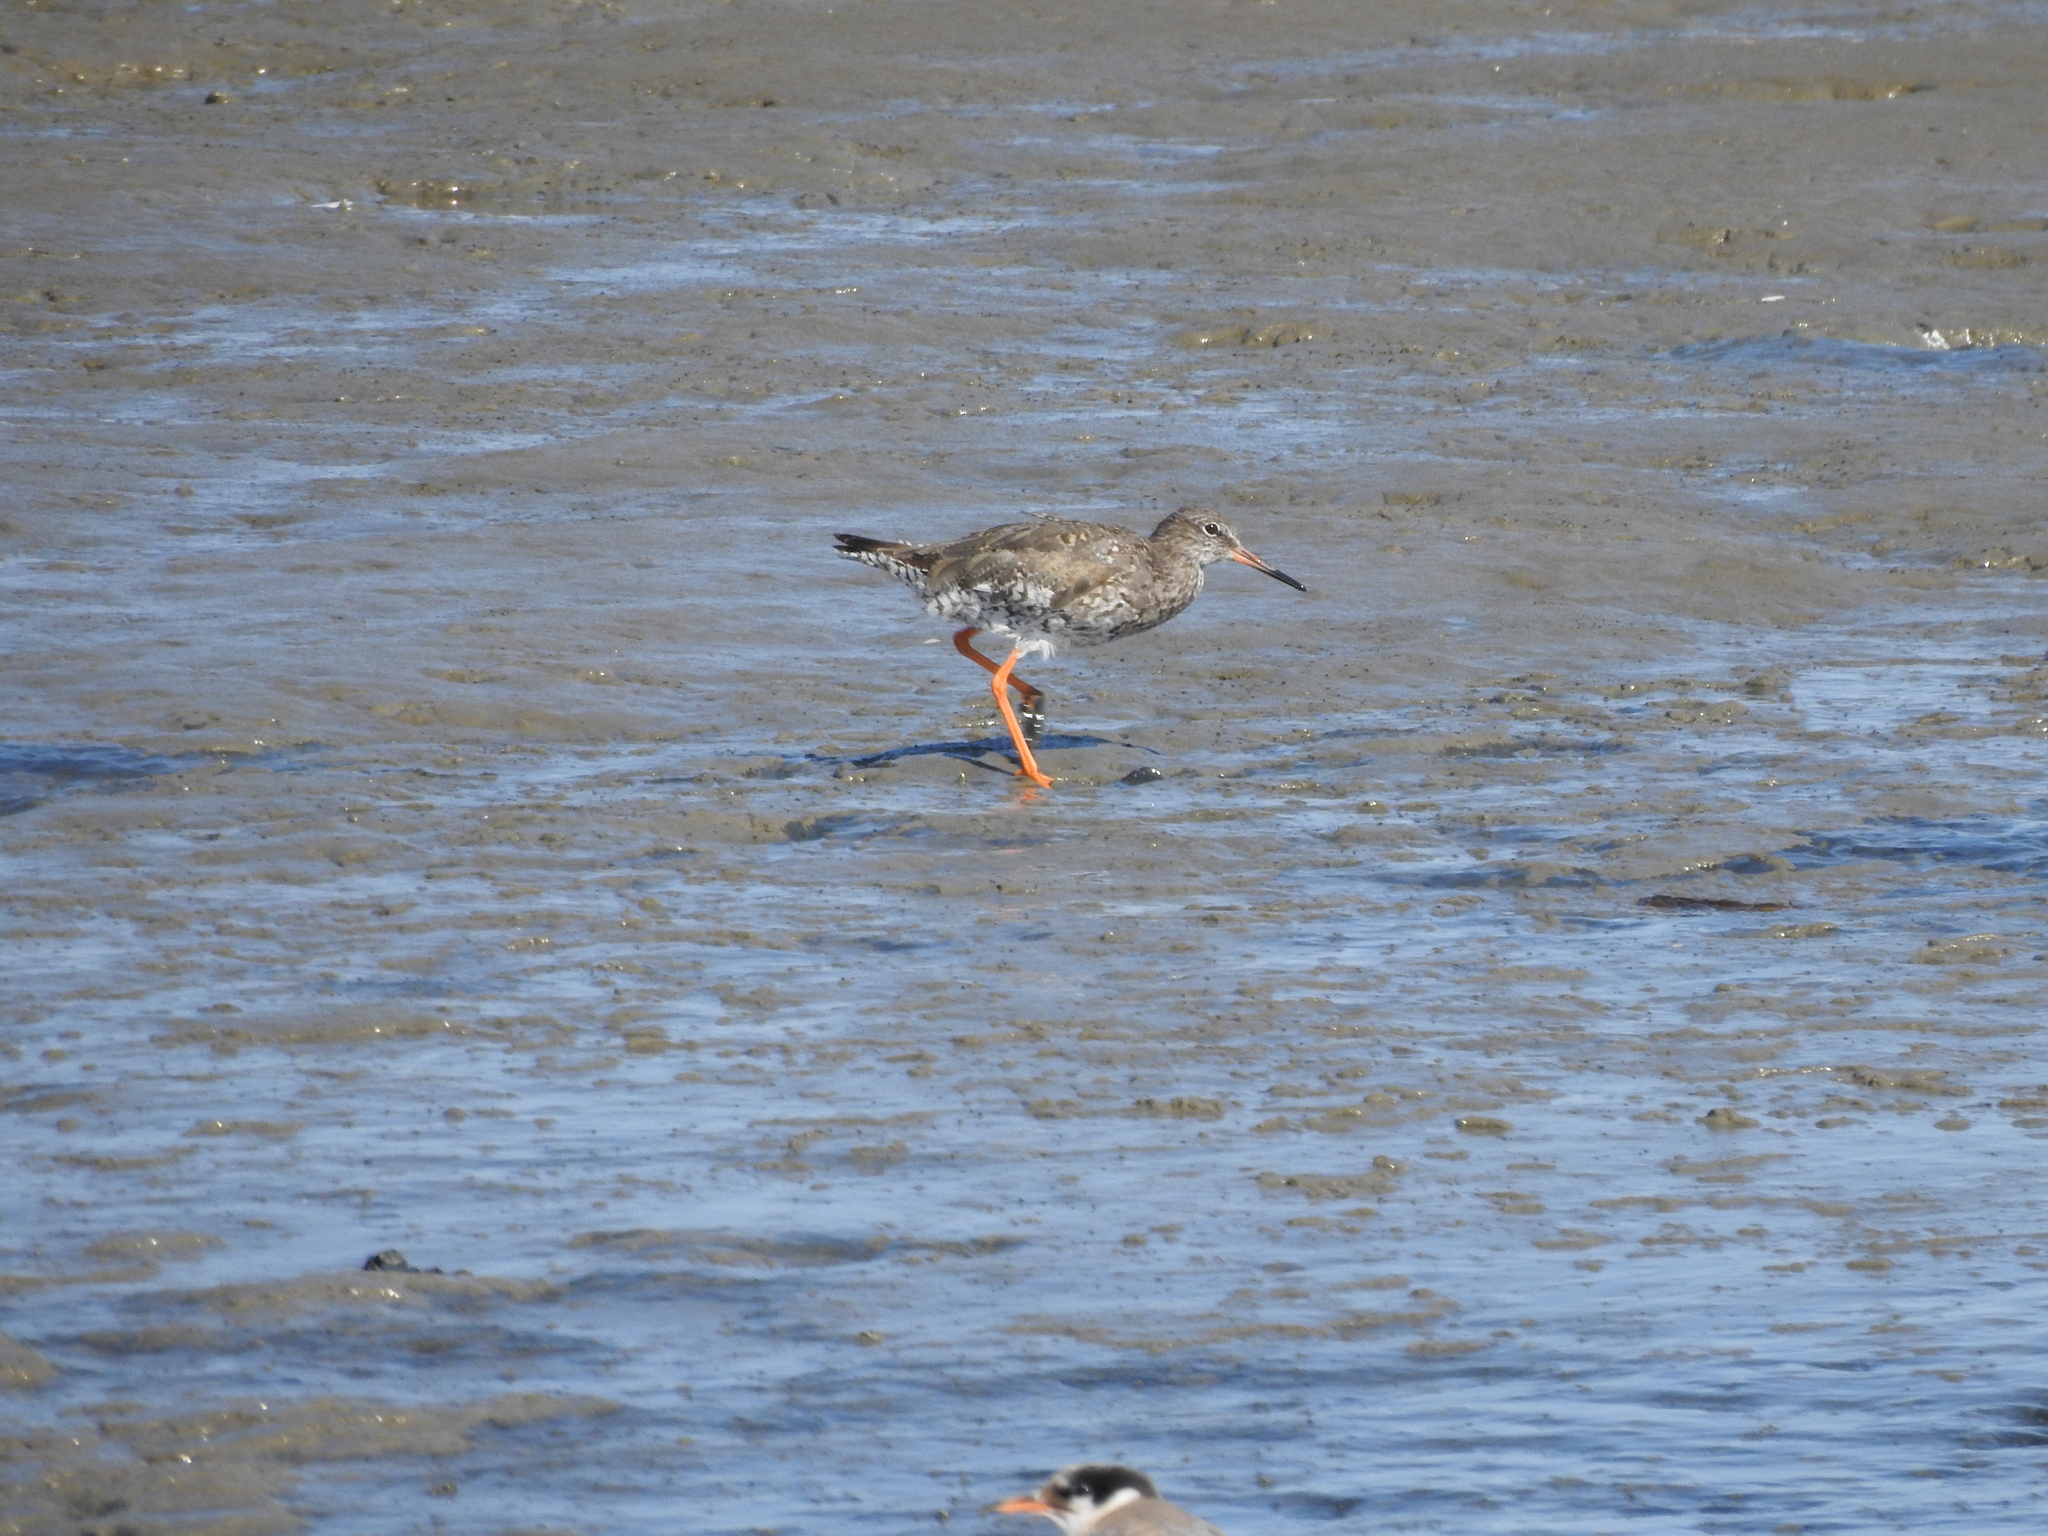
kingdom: Animalia
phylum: Chordata
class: Aves
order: Charadriiformes
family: Scolopacidae
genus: Tringa
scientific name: Tringa totanus
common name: Common redshank
